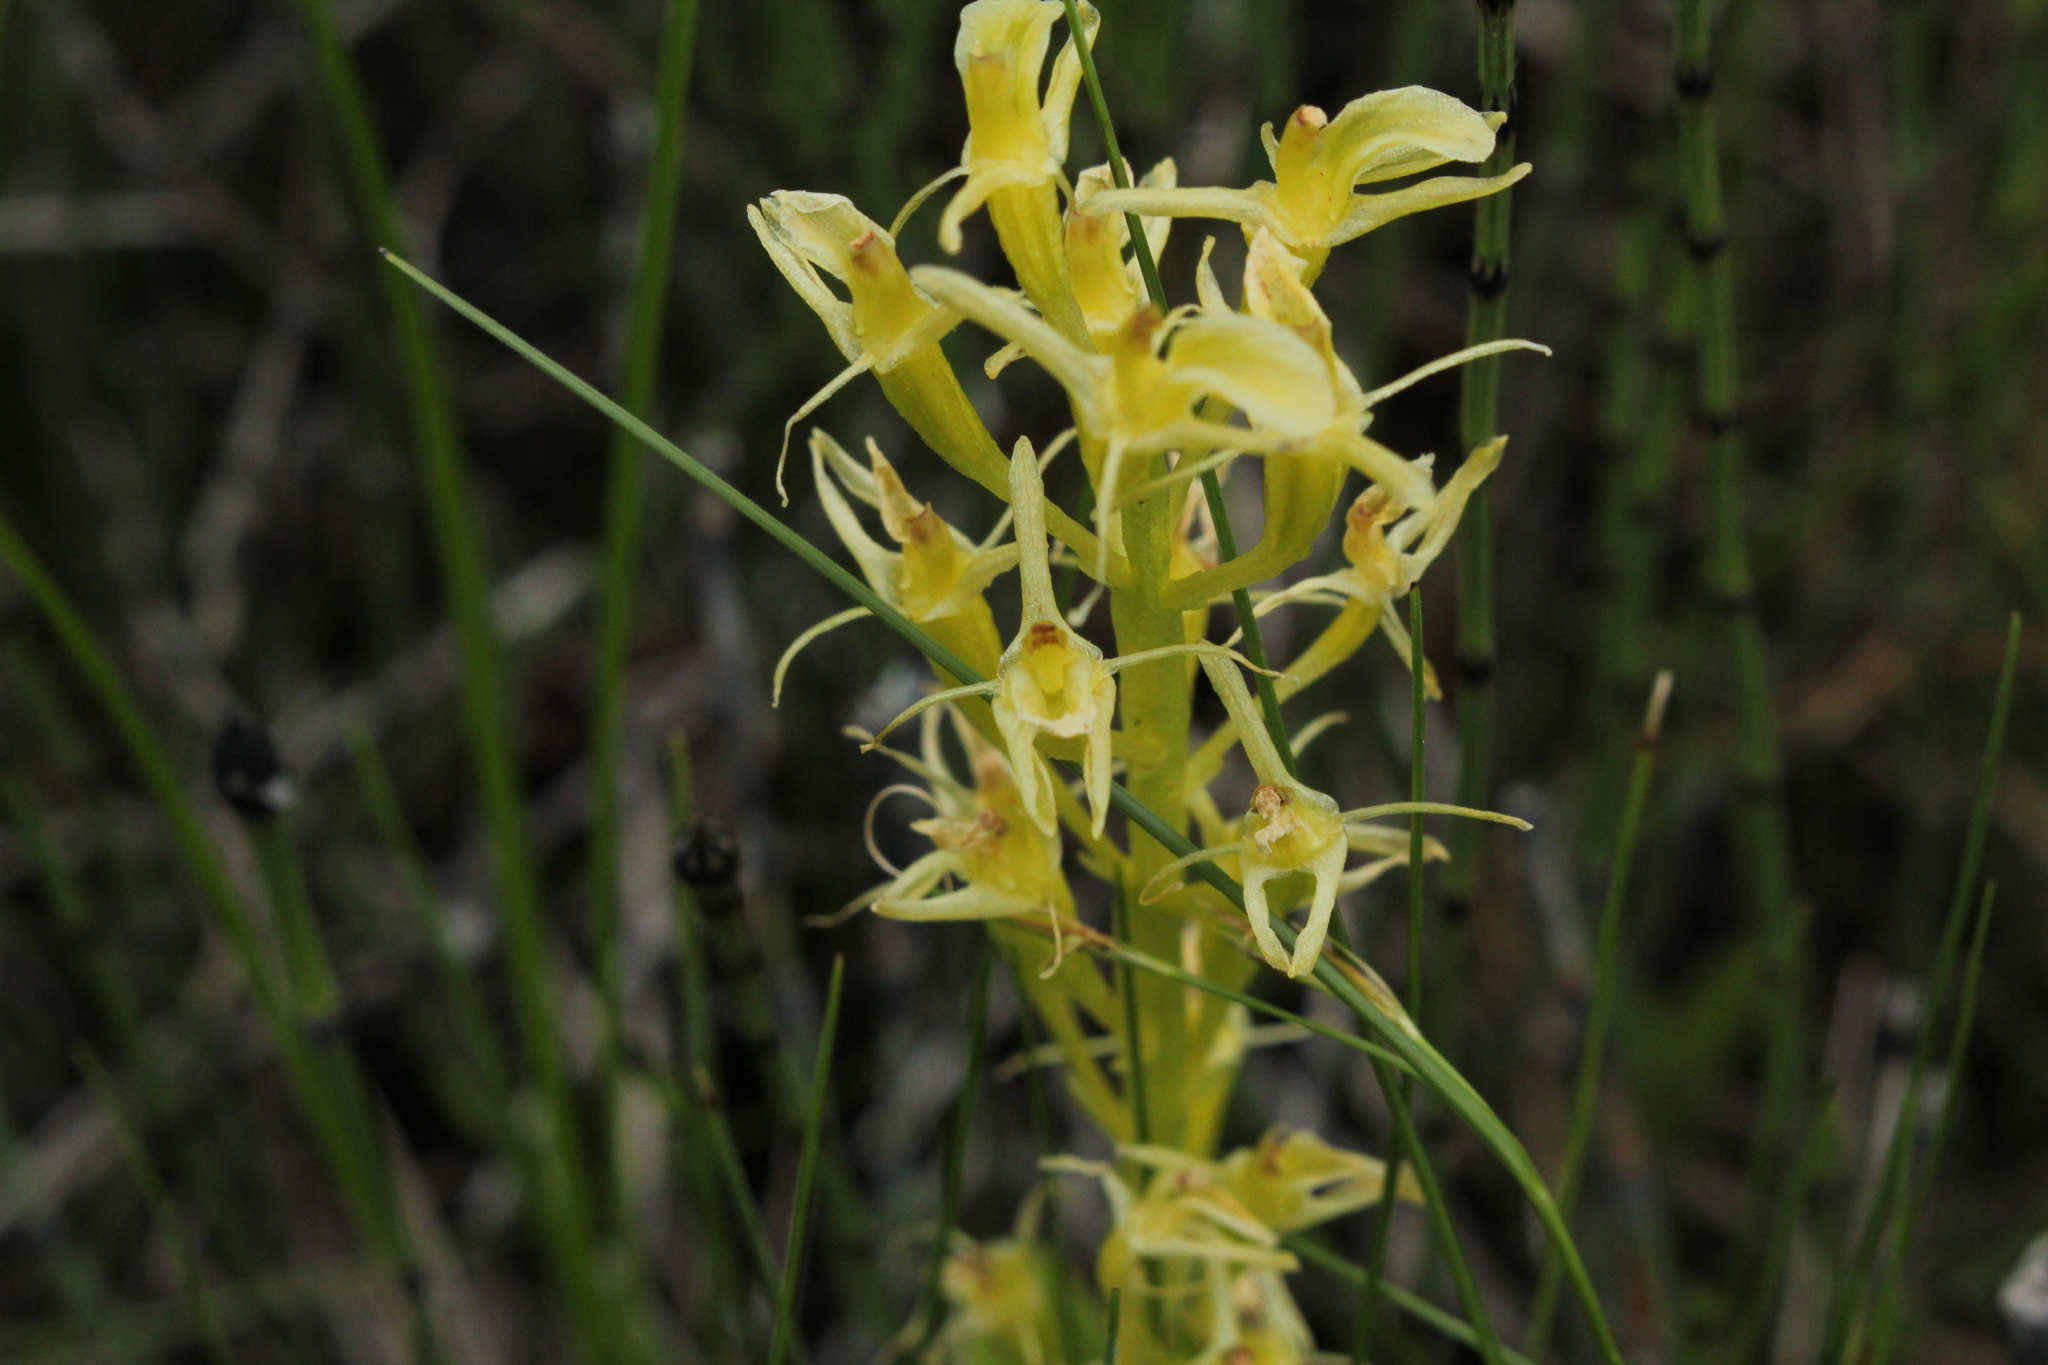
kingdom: Animalia
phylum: Arthropoda
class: Insecta
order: Coleoptera
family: Curculionidae
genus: Liparis
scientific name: Liparis loeselii
